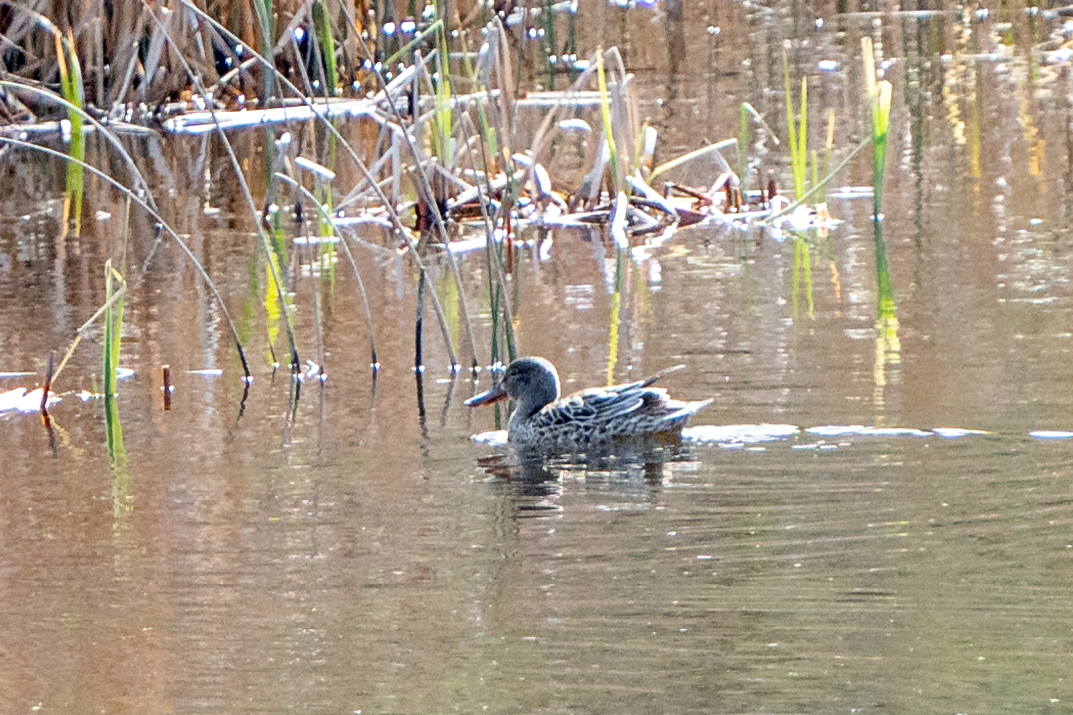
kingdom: Animalia
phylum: Chordata
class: Aves
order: Anseriformes
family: Anatidae
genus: Spatula
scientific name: Spatula clypeata
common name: Northern shoveler
